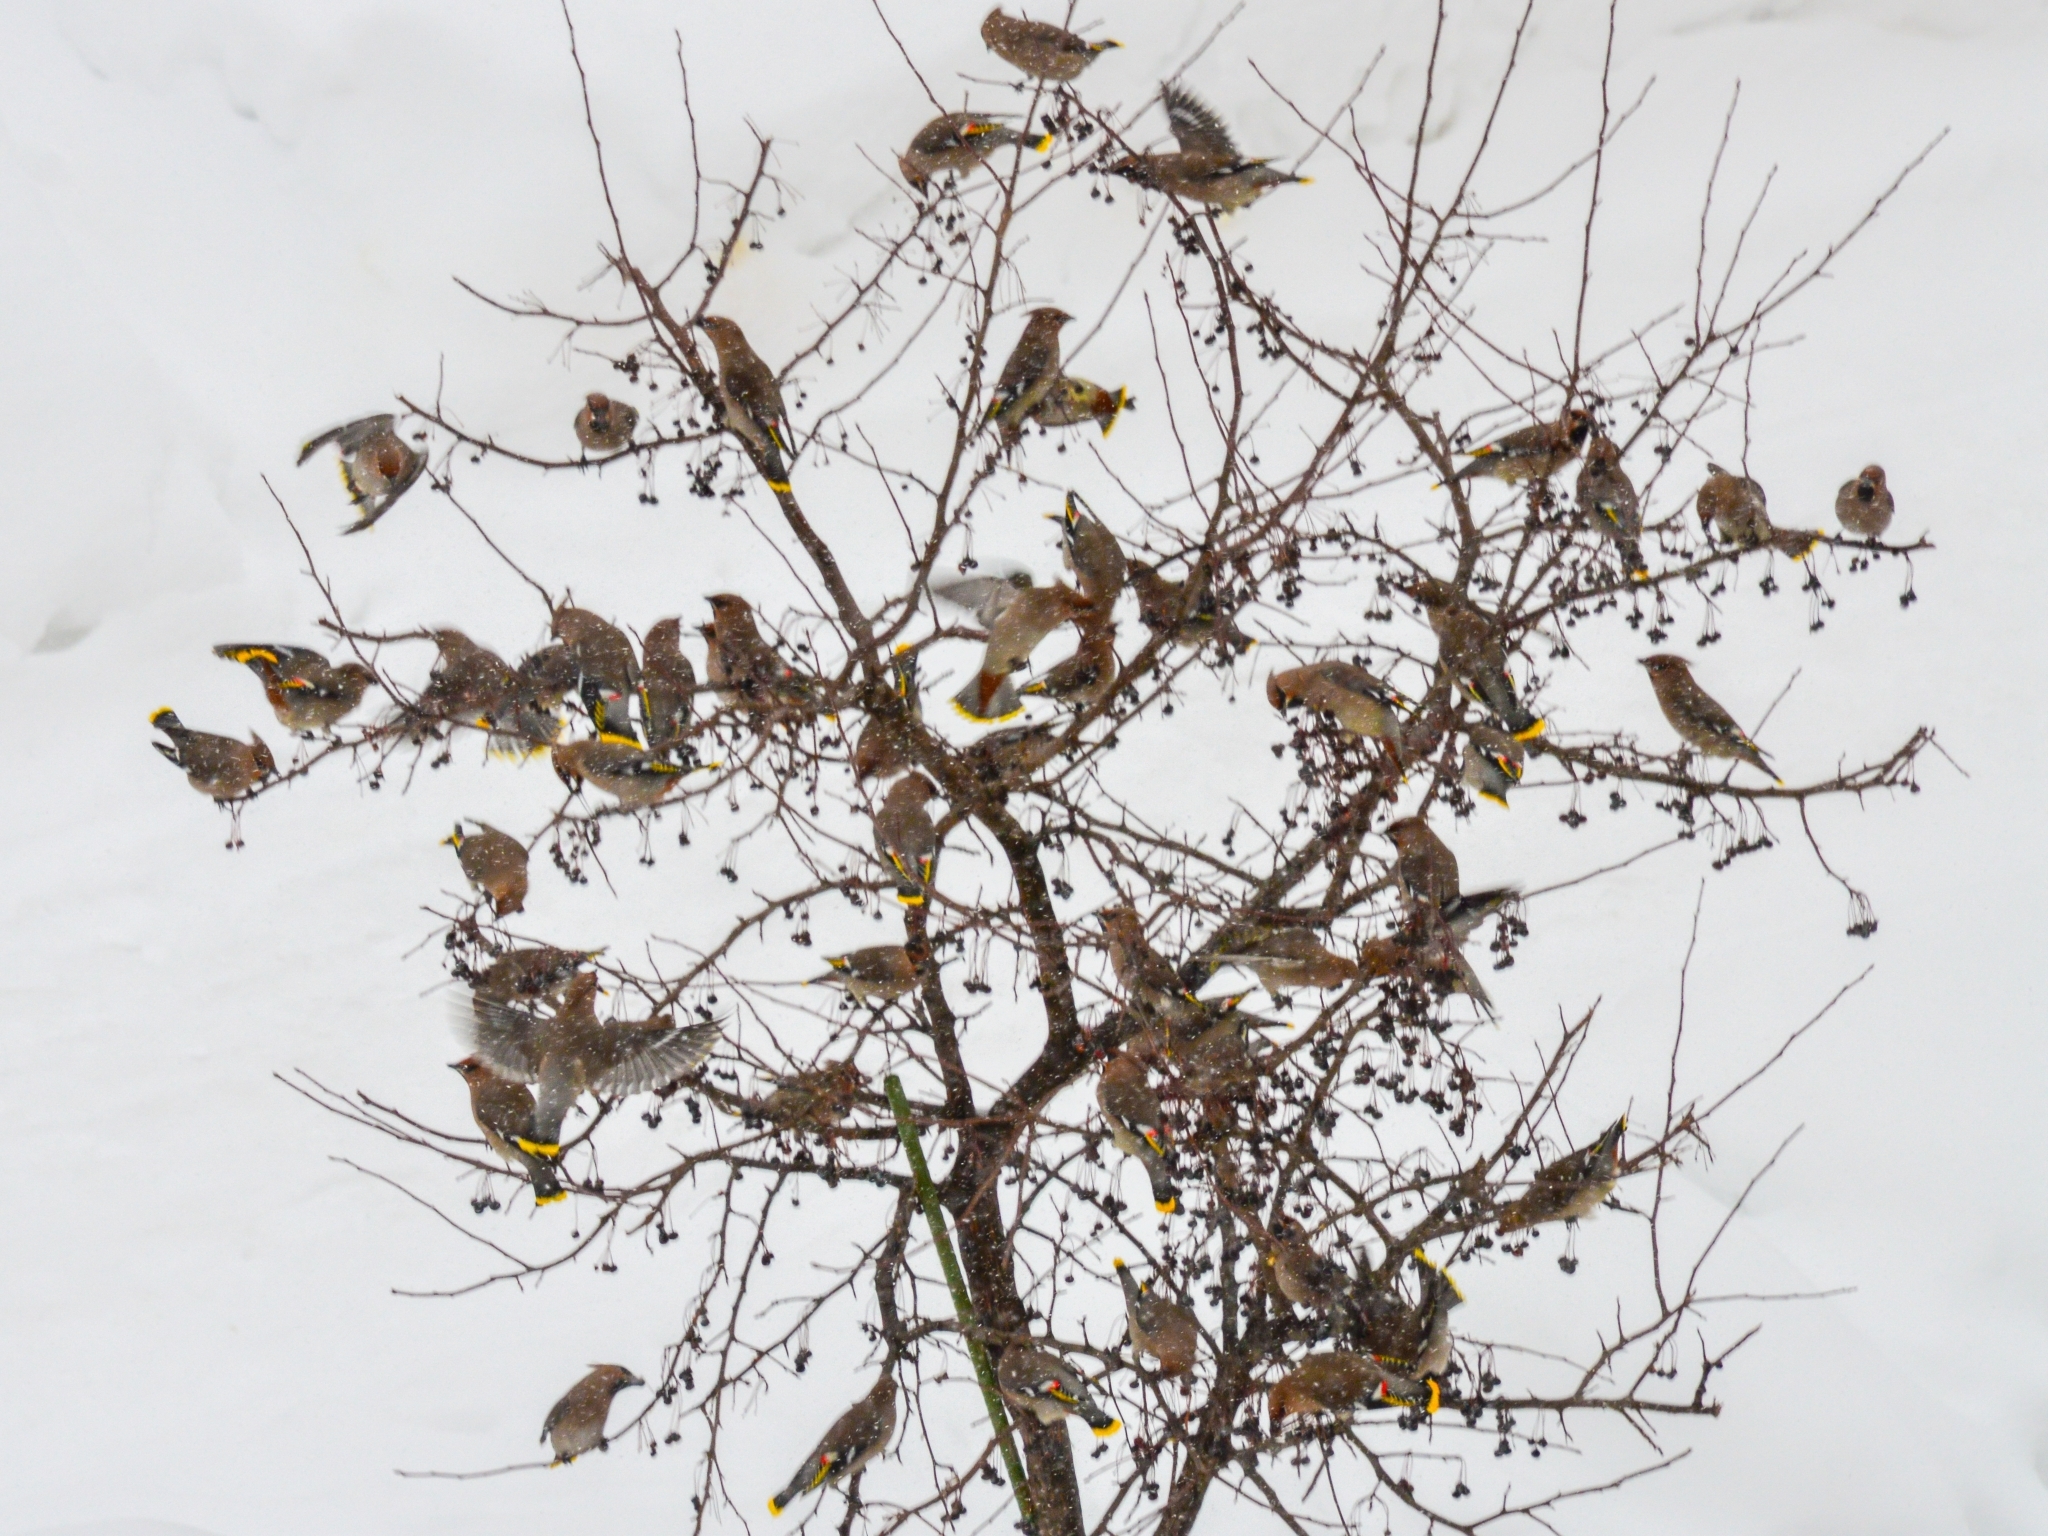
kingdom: Animalia
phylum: Chordata
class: Aves
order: Passeriformes
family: Bombycillidae
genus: Bombycilla
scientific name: Bombycilla garrulus
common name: Bohemian waxwing
